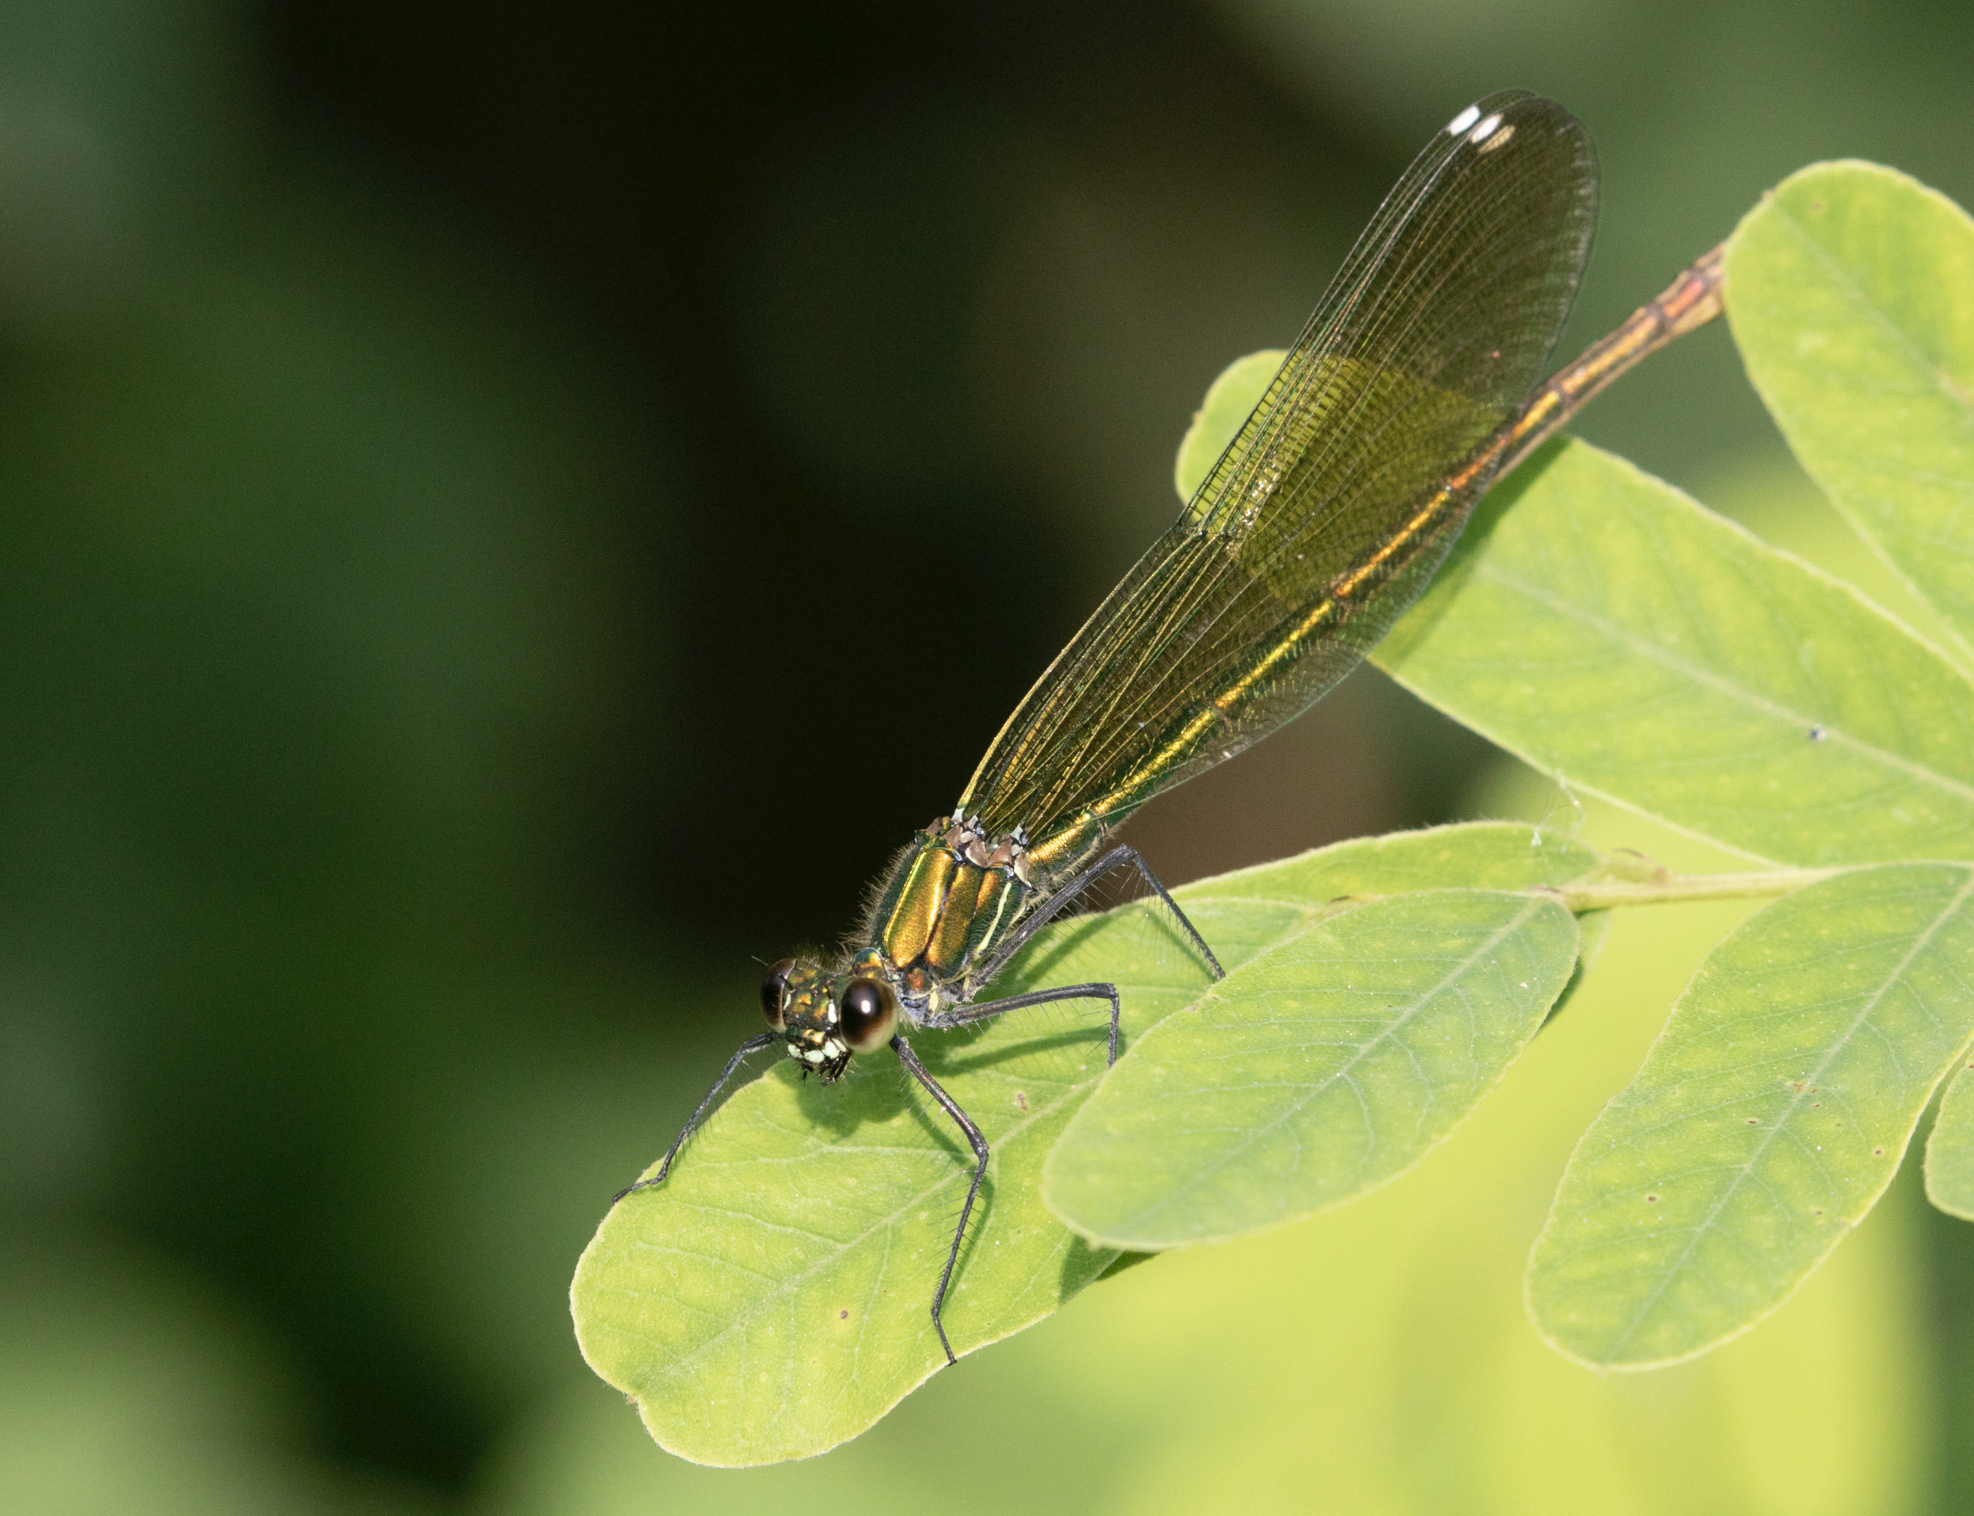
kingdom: Animalia
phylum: Arthropoda
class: Insecta
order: Odonata
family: Calopterygidae
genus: Calopteryx
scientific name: Calopteryx splendens
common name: Banded demoiselle
